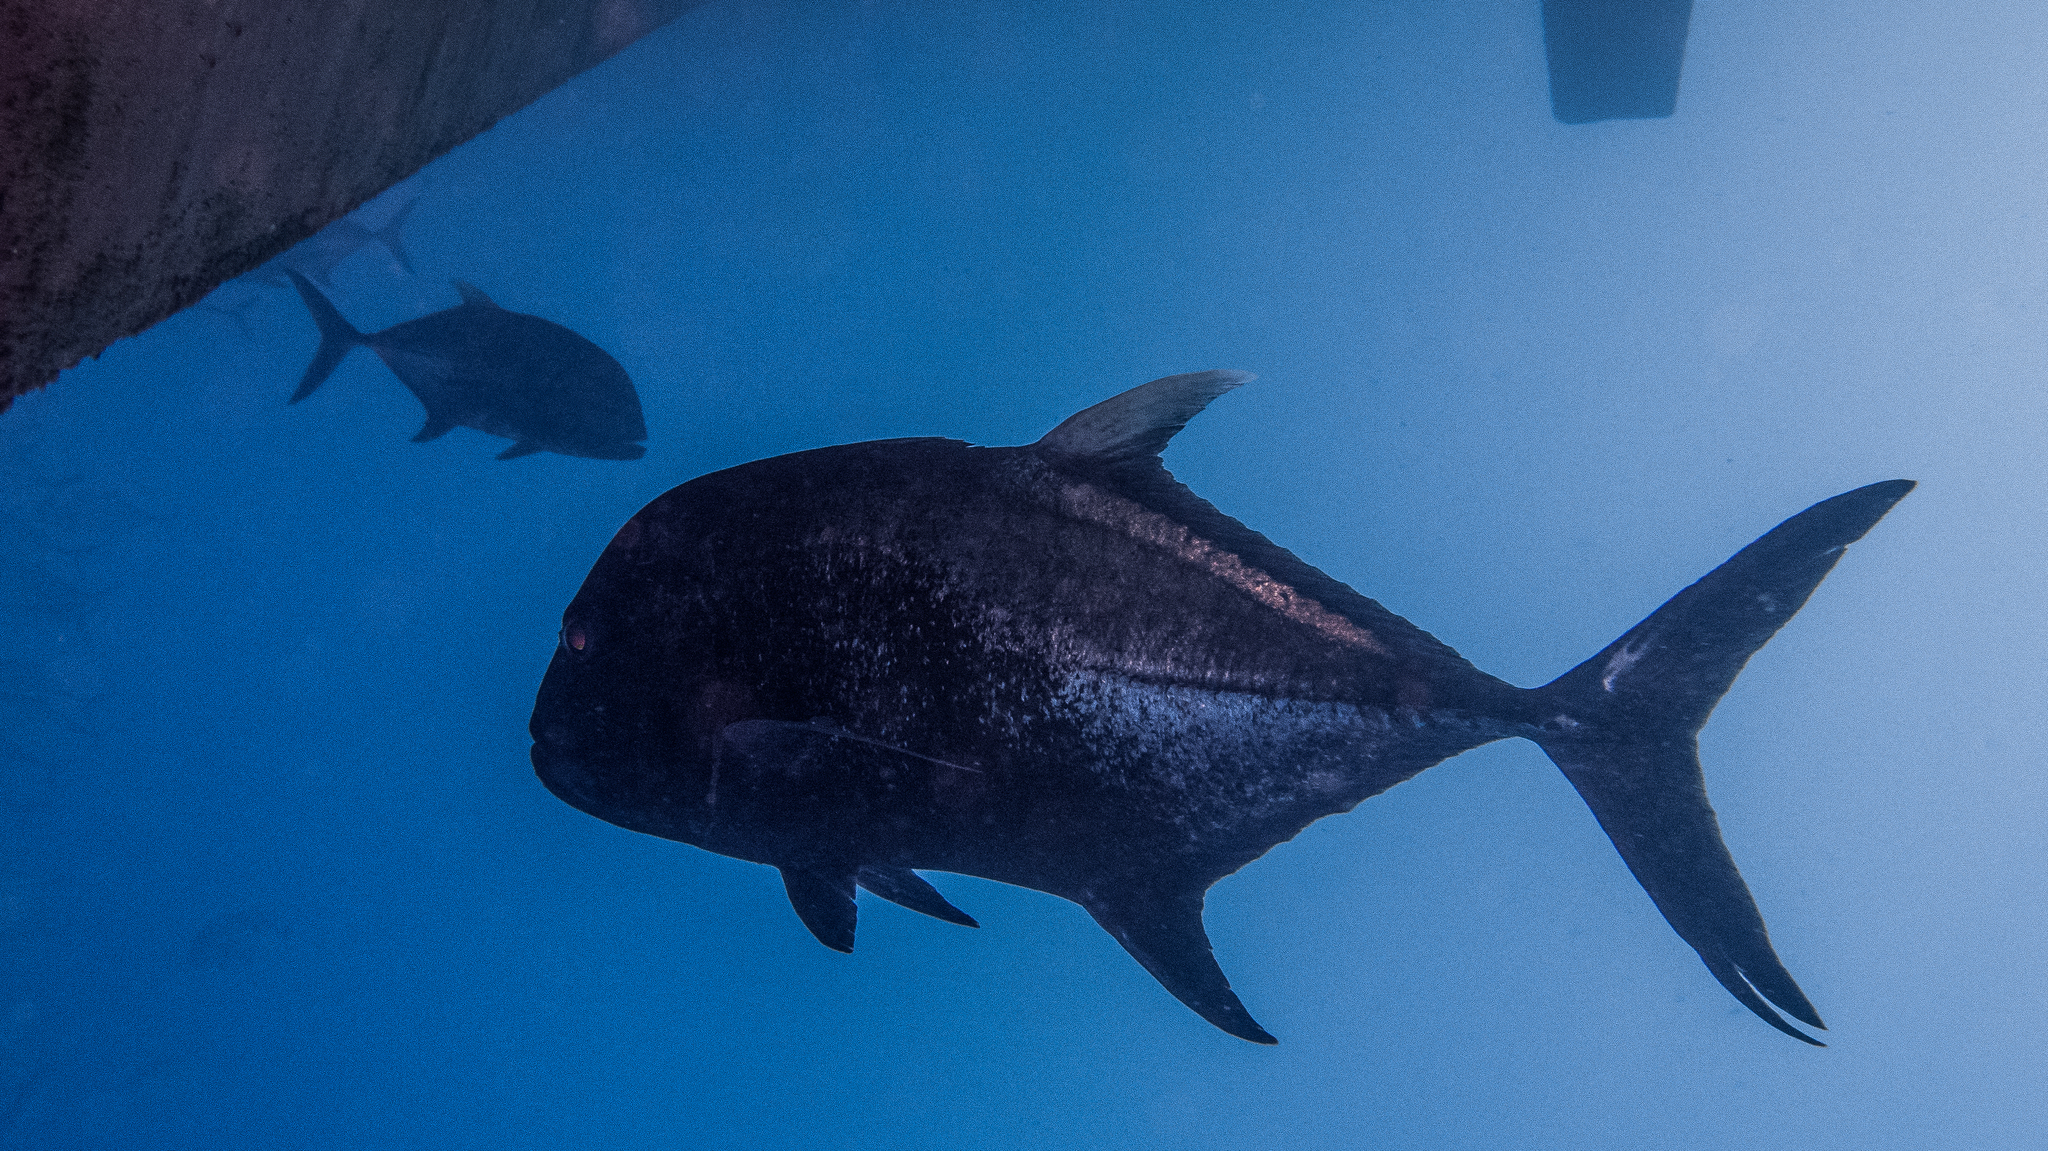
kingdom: Animalia
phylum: Chordata
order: Perciformes
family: Carangidae
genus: Caranx
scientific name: Caranx ignobilis
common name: Giant trevally
